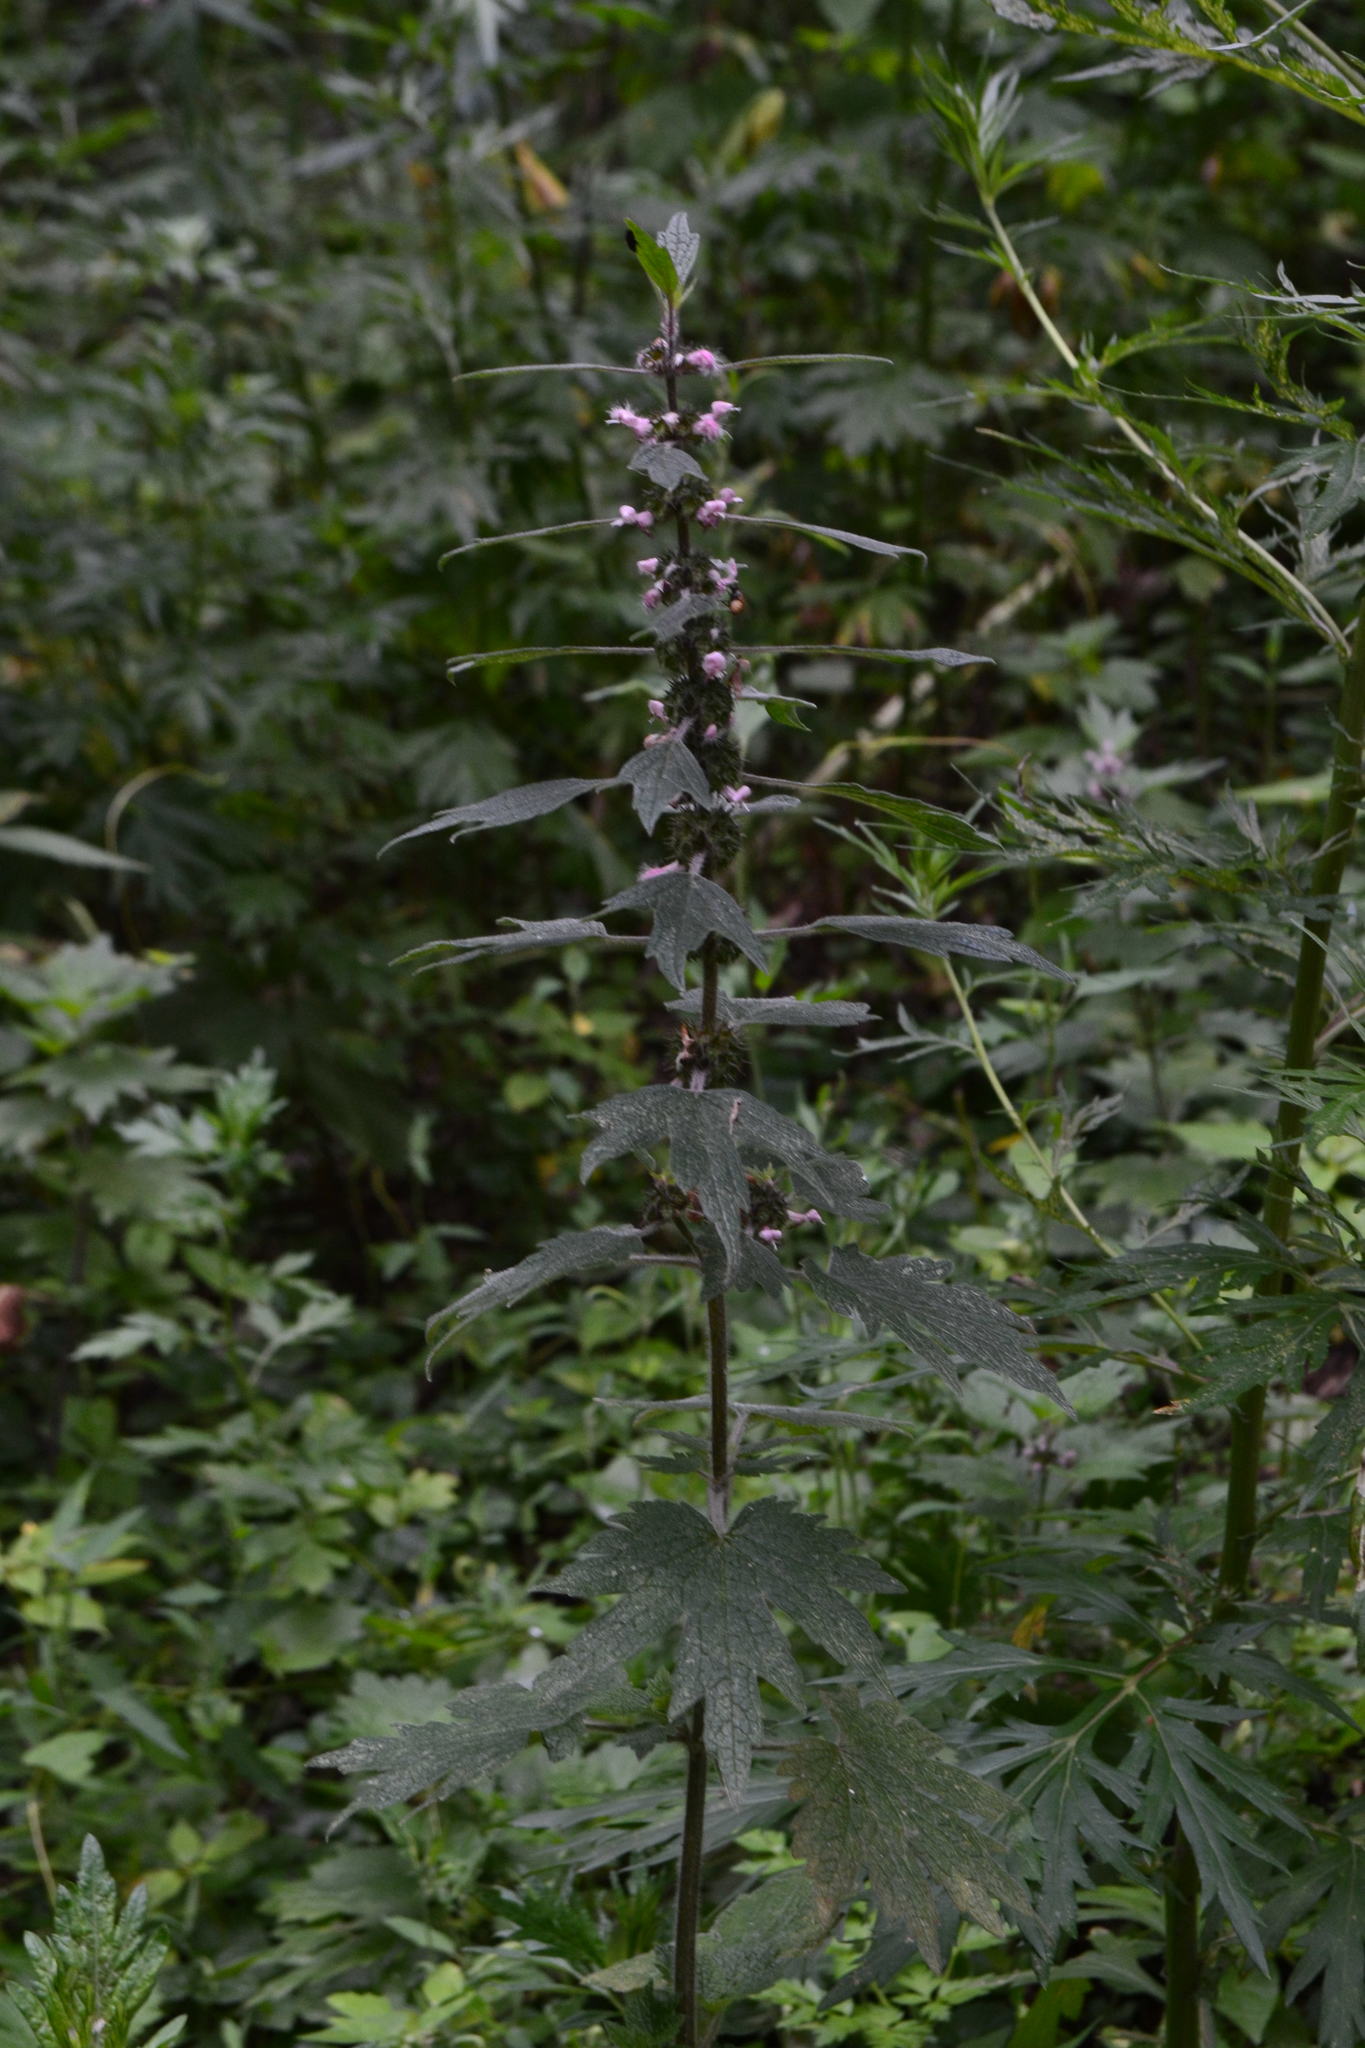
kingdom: Plantae
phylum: Tracheophyta
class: Magnoliopsida
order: Lamiales
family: Lamiaceae
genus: Leonurus
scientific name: Leonurus quinquelobatus
